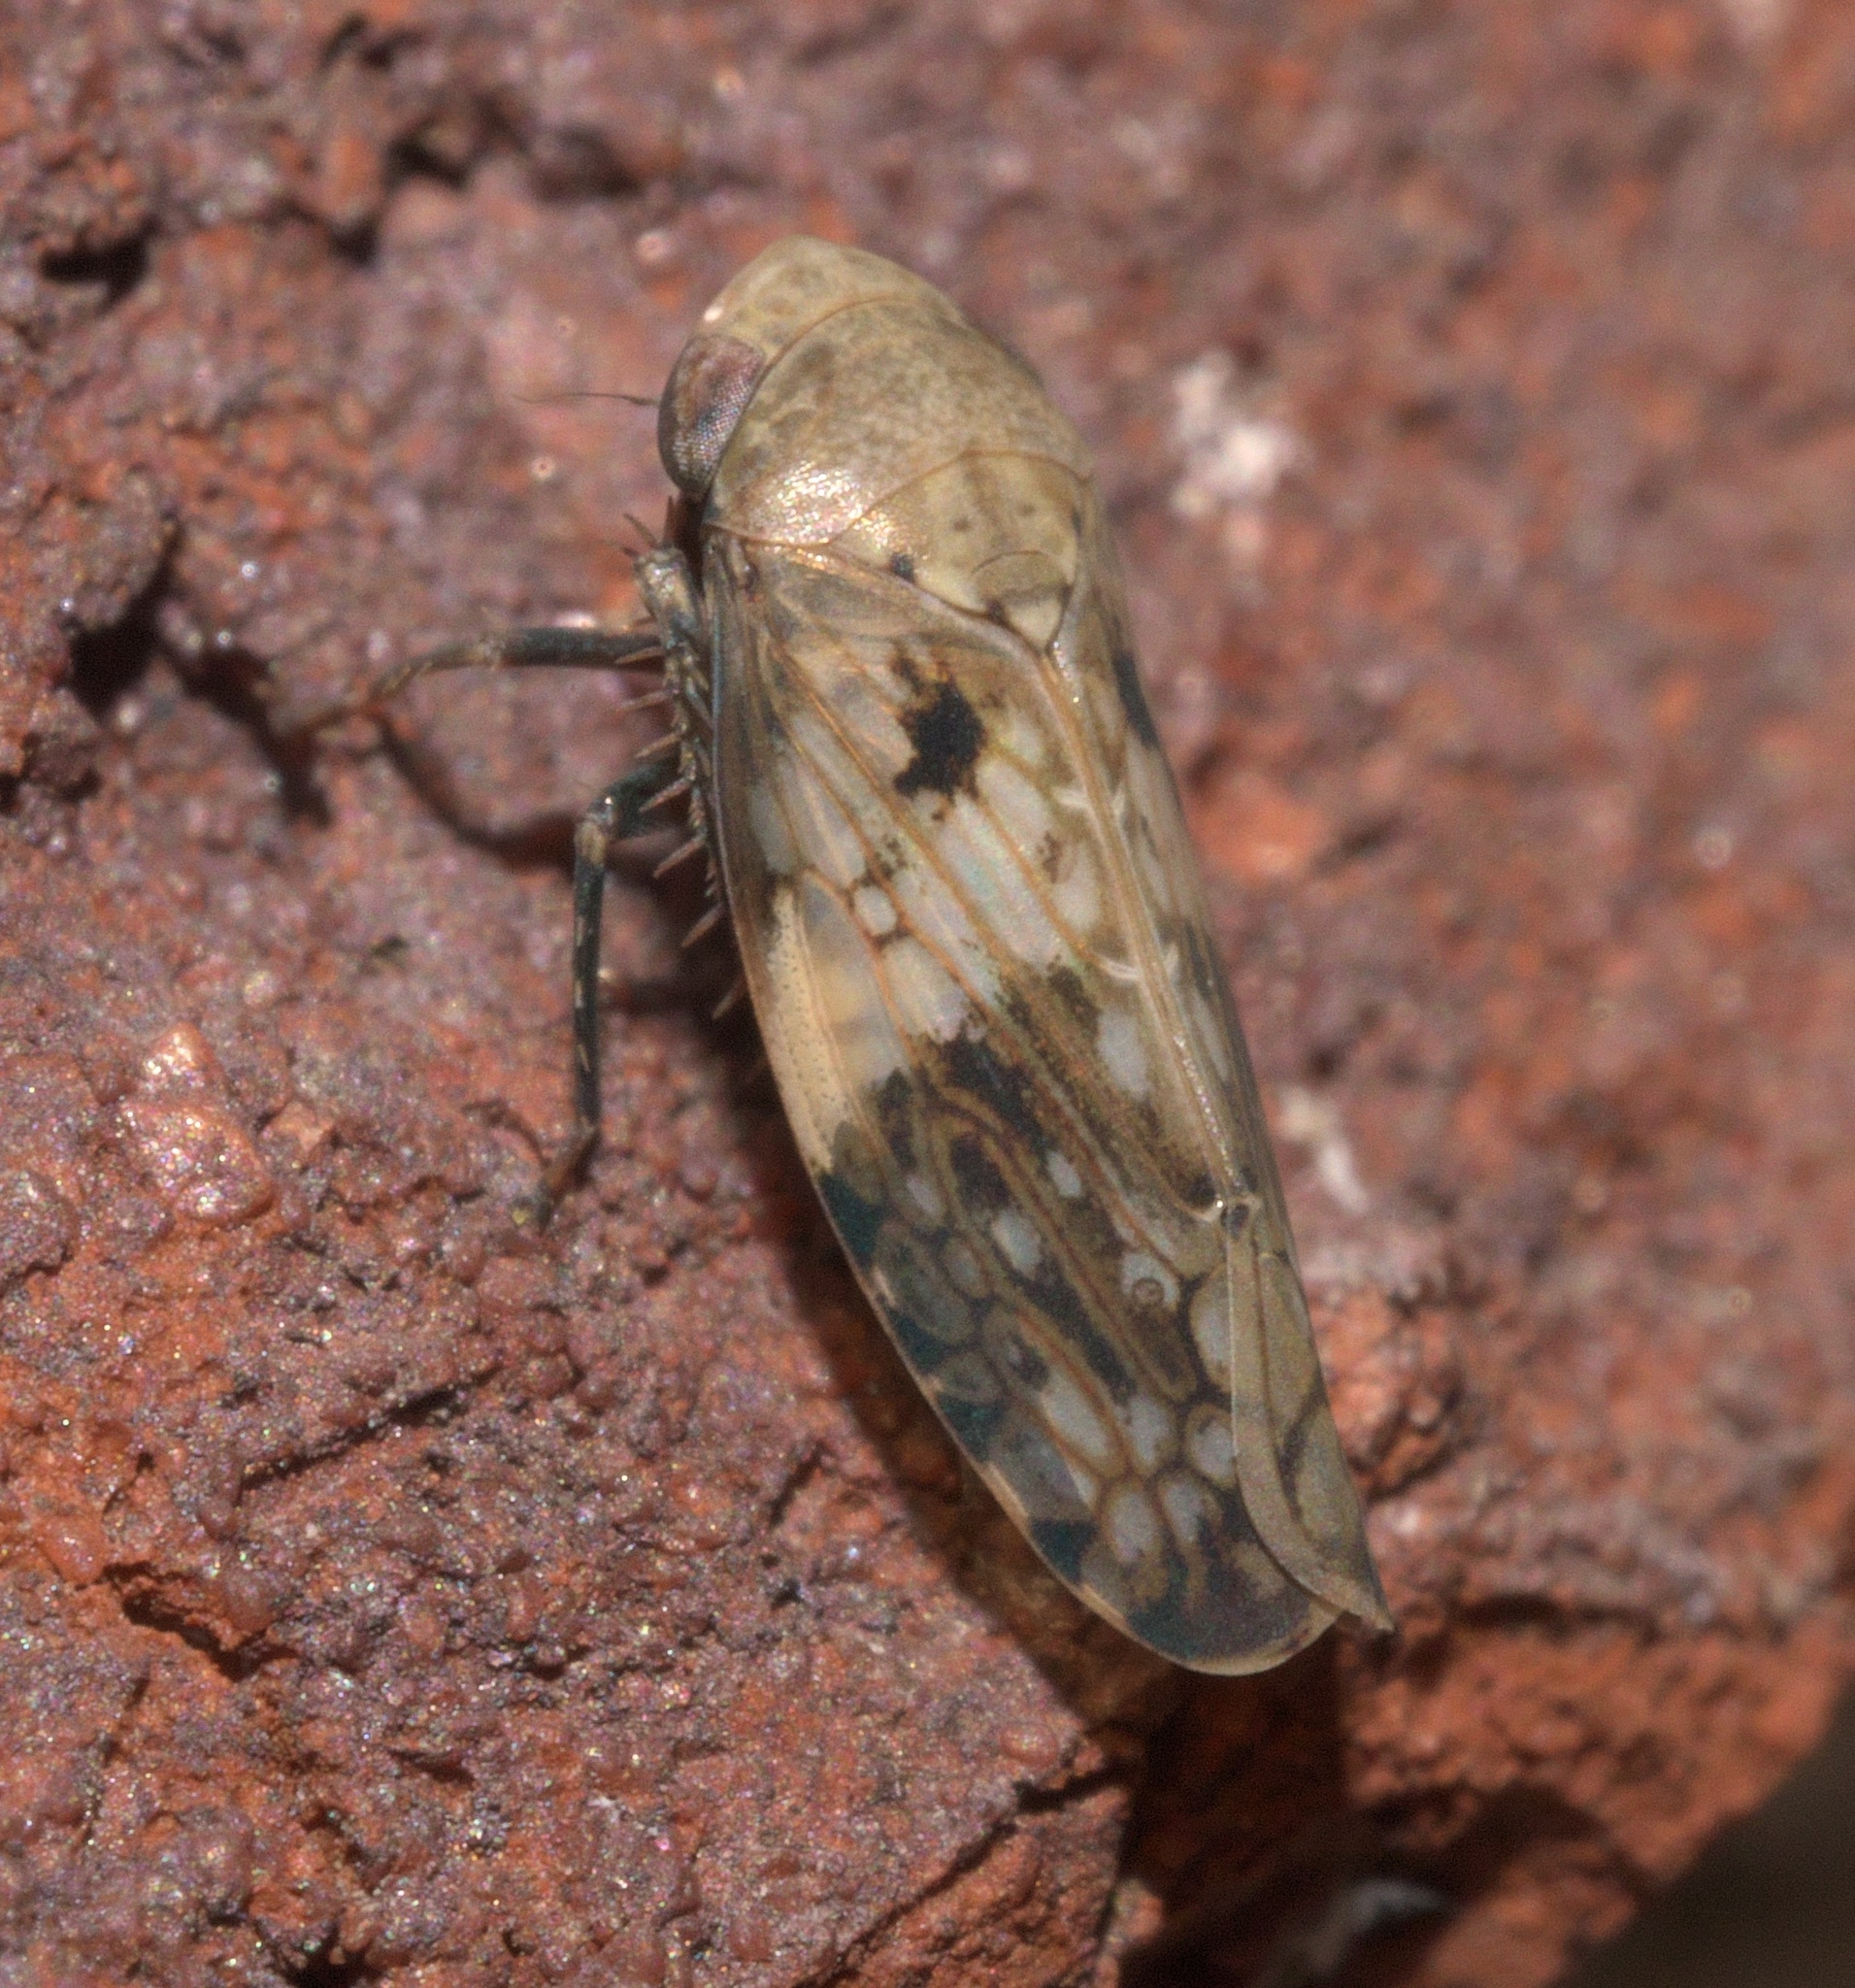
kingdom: Animalia
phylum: Arthropoda
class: Insecta
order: Hemiptera
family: Cicadellidae
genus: Menosoma
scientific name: Menosoma cinctum
